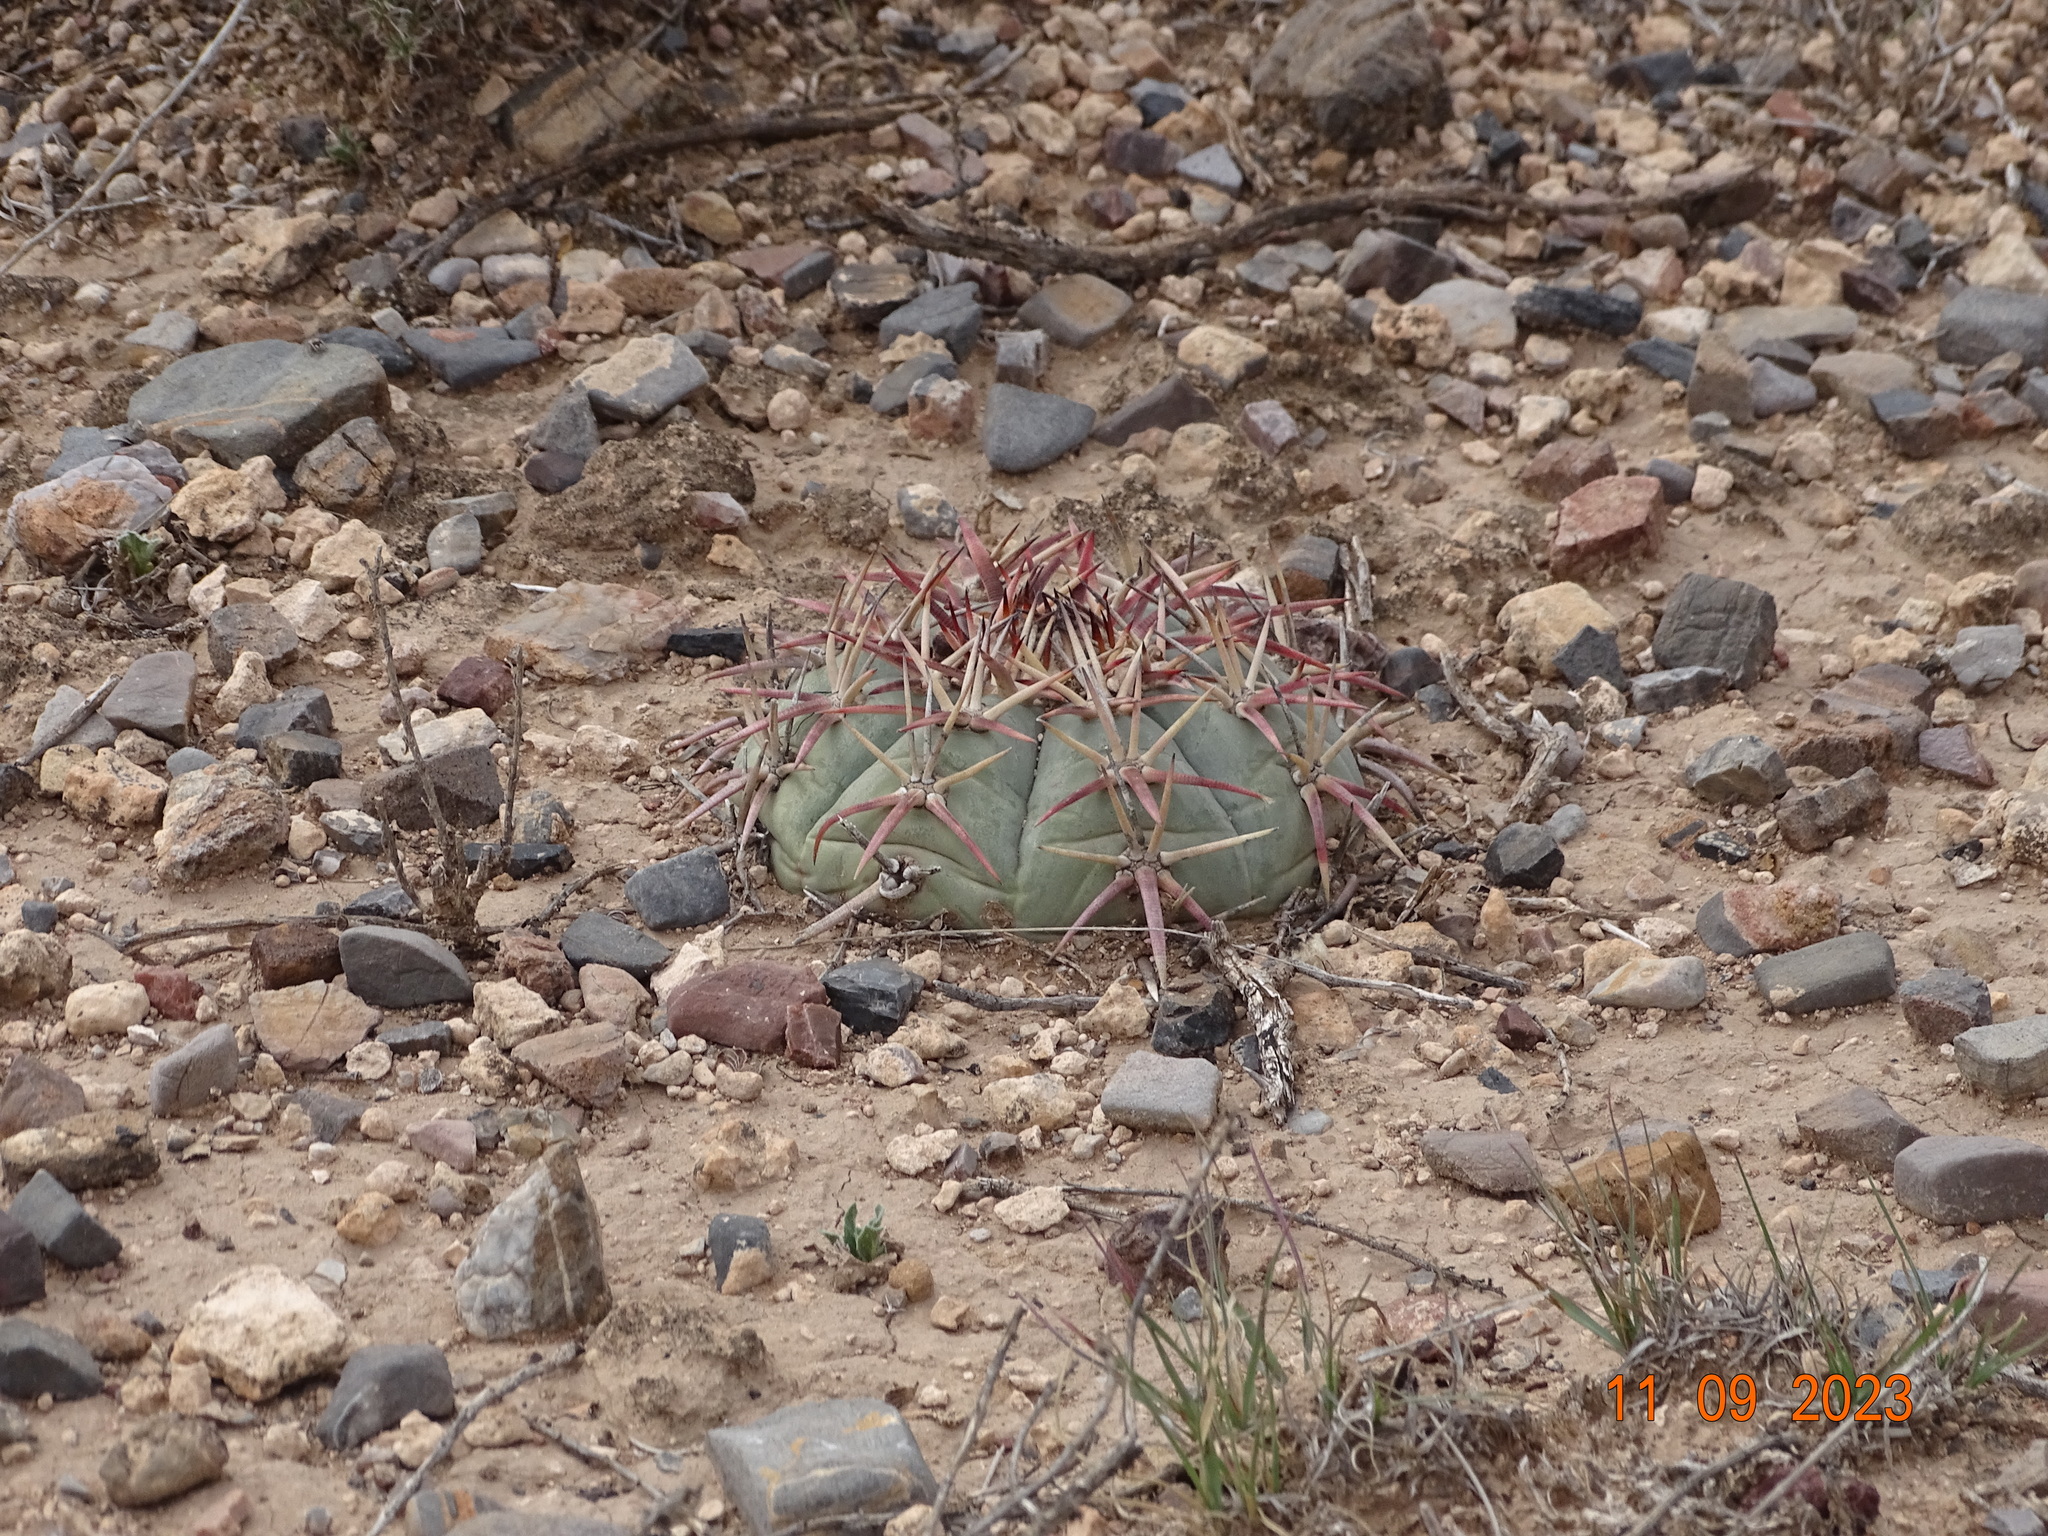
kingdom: Plantae
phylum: Tracheophyta
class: Magnoliopsida
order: Caryophyllales
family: Cactaceae
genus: Echinocactus
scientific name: Echinocactus horizonthalonius
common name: Devilshead
